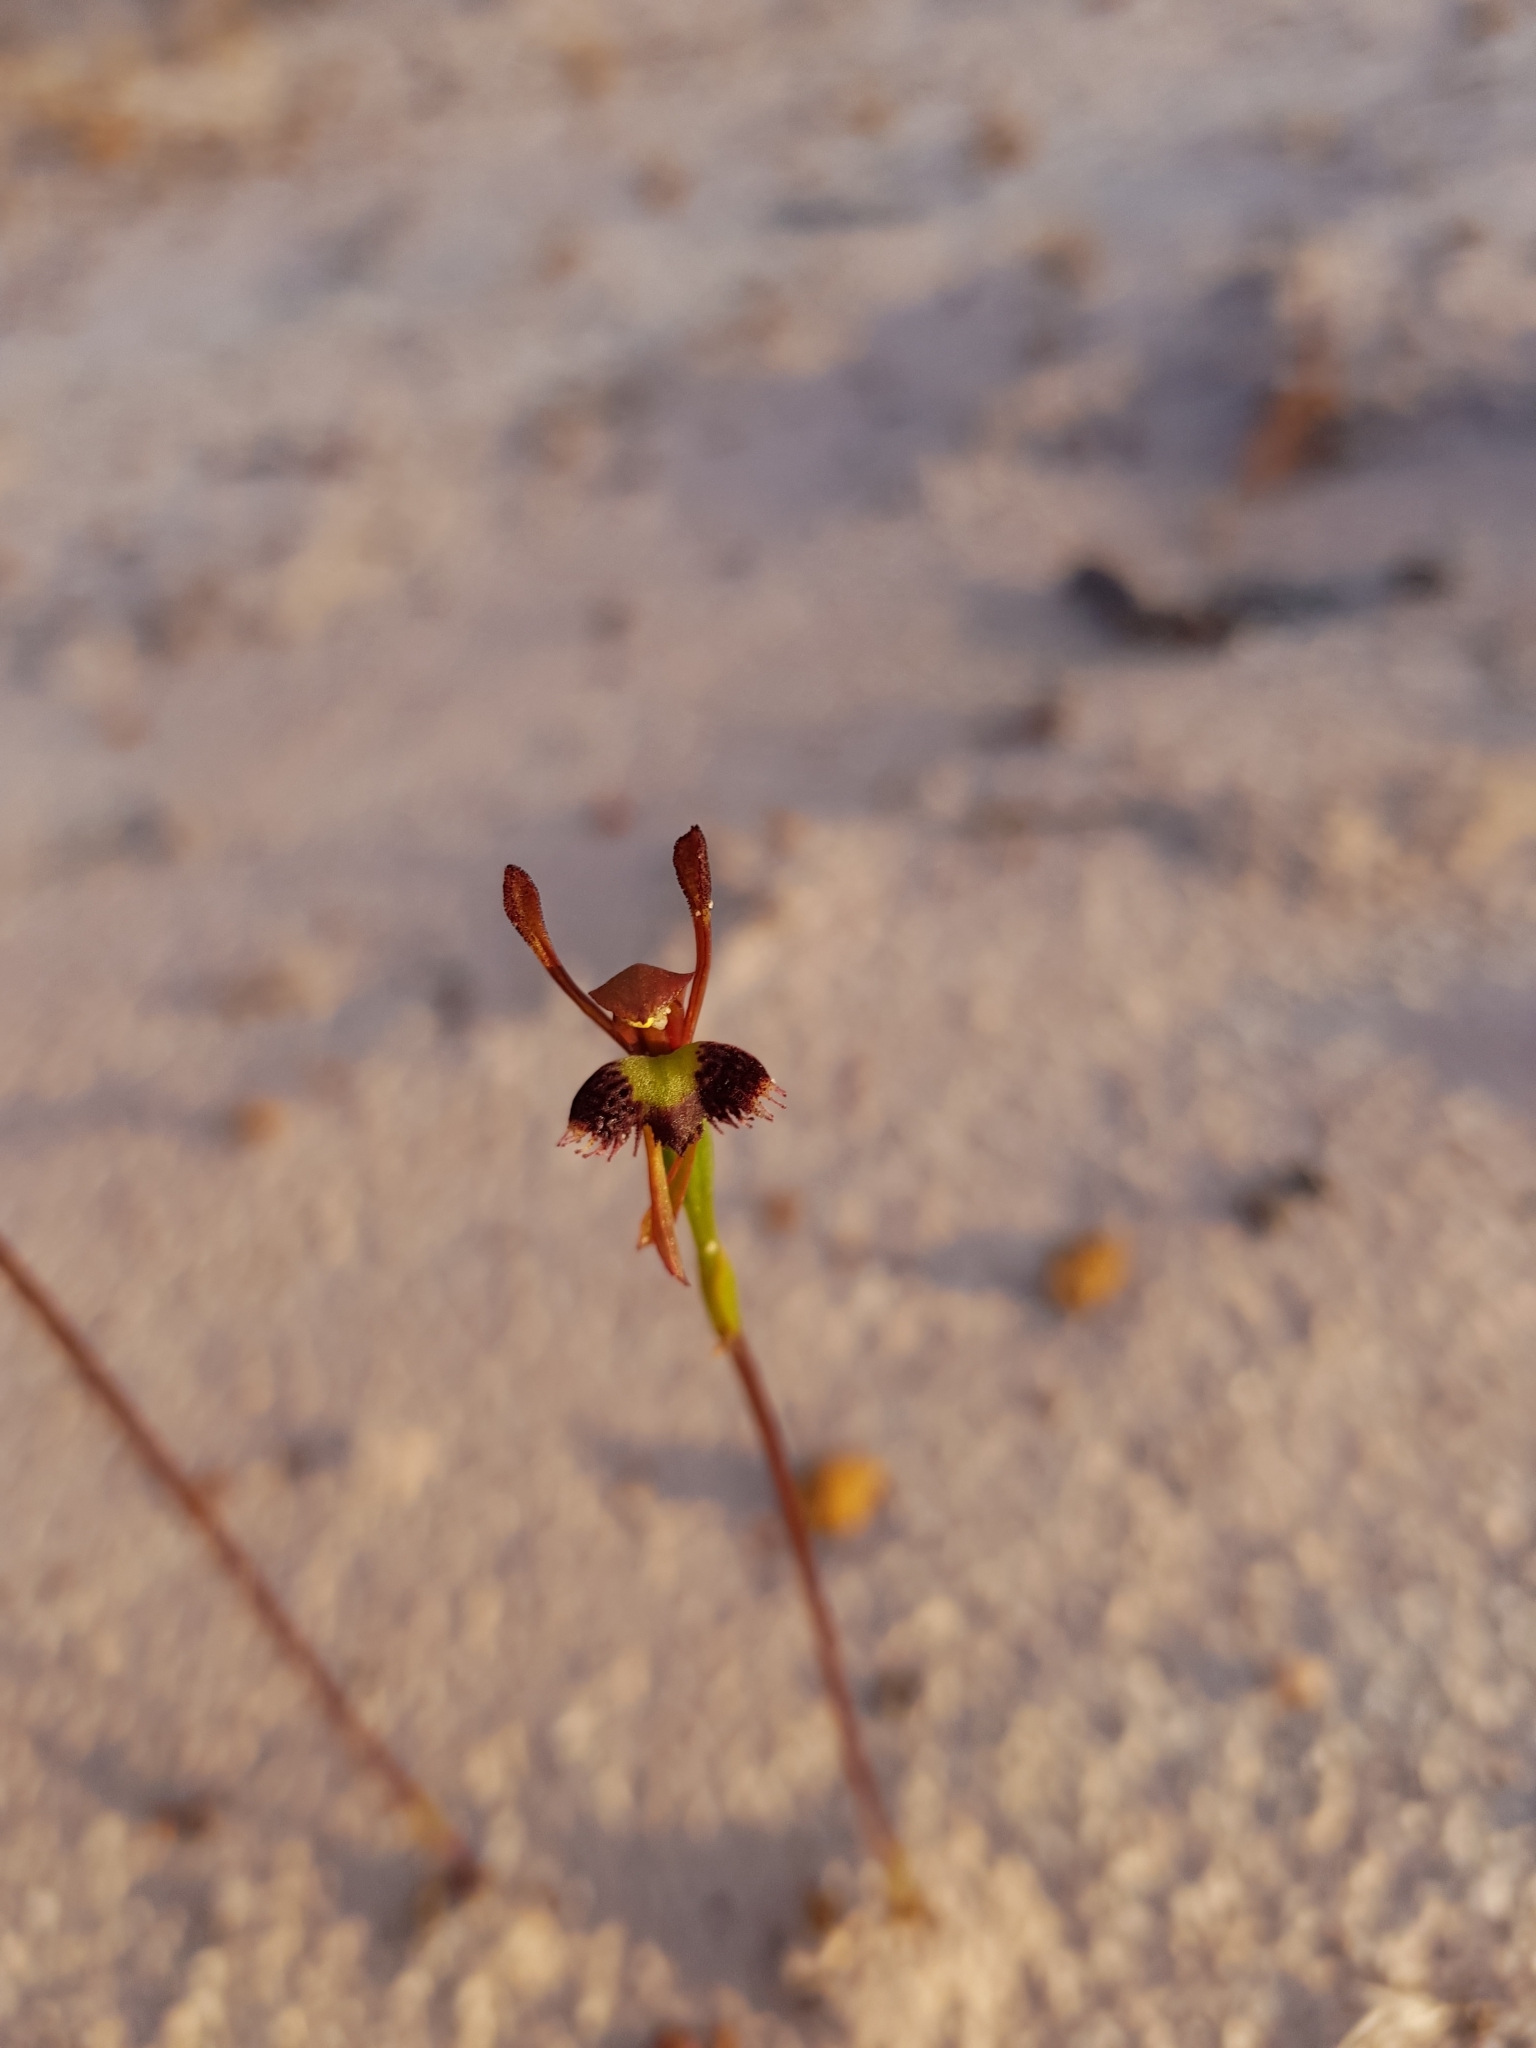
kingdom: Plantae
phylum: Tracheophyta
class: Liliopsida
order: Asparagales
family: Orchidaceae
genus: Leporella
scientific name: Leporella fimbriata
